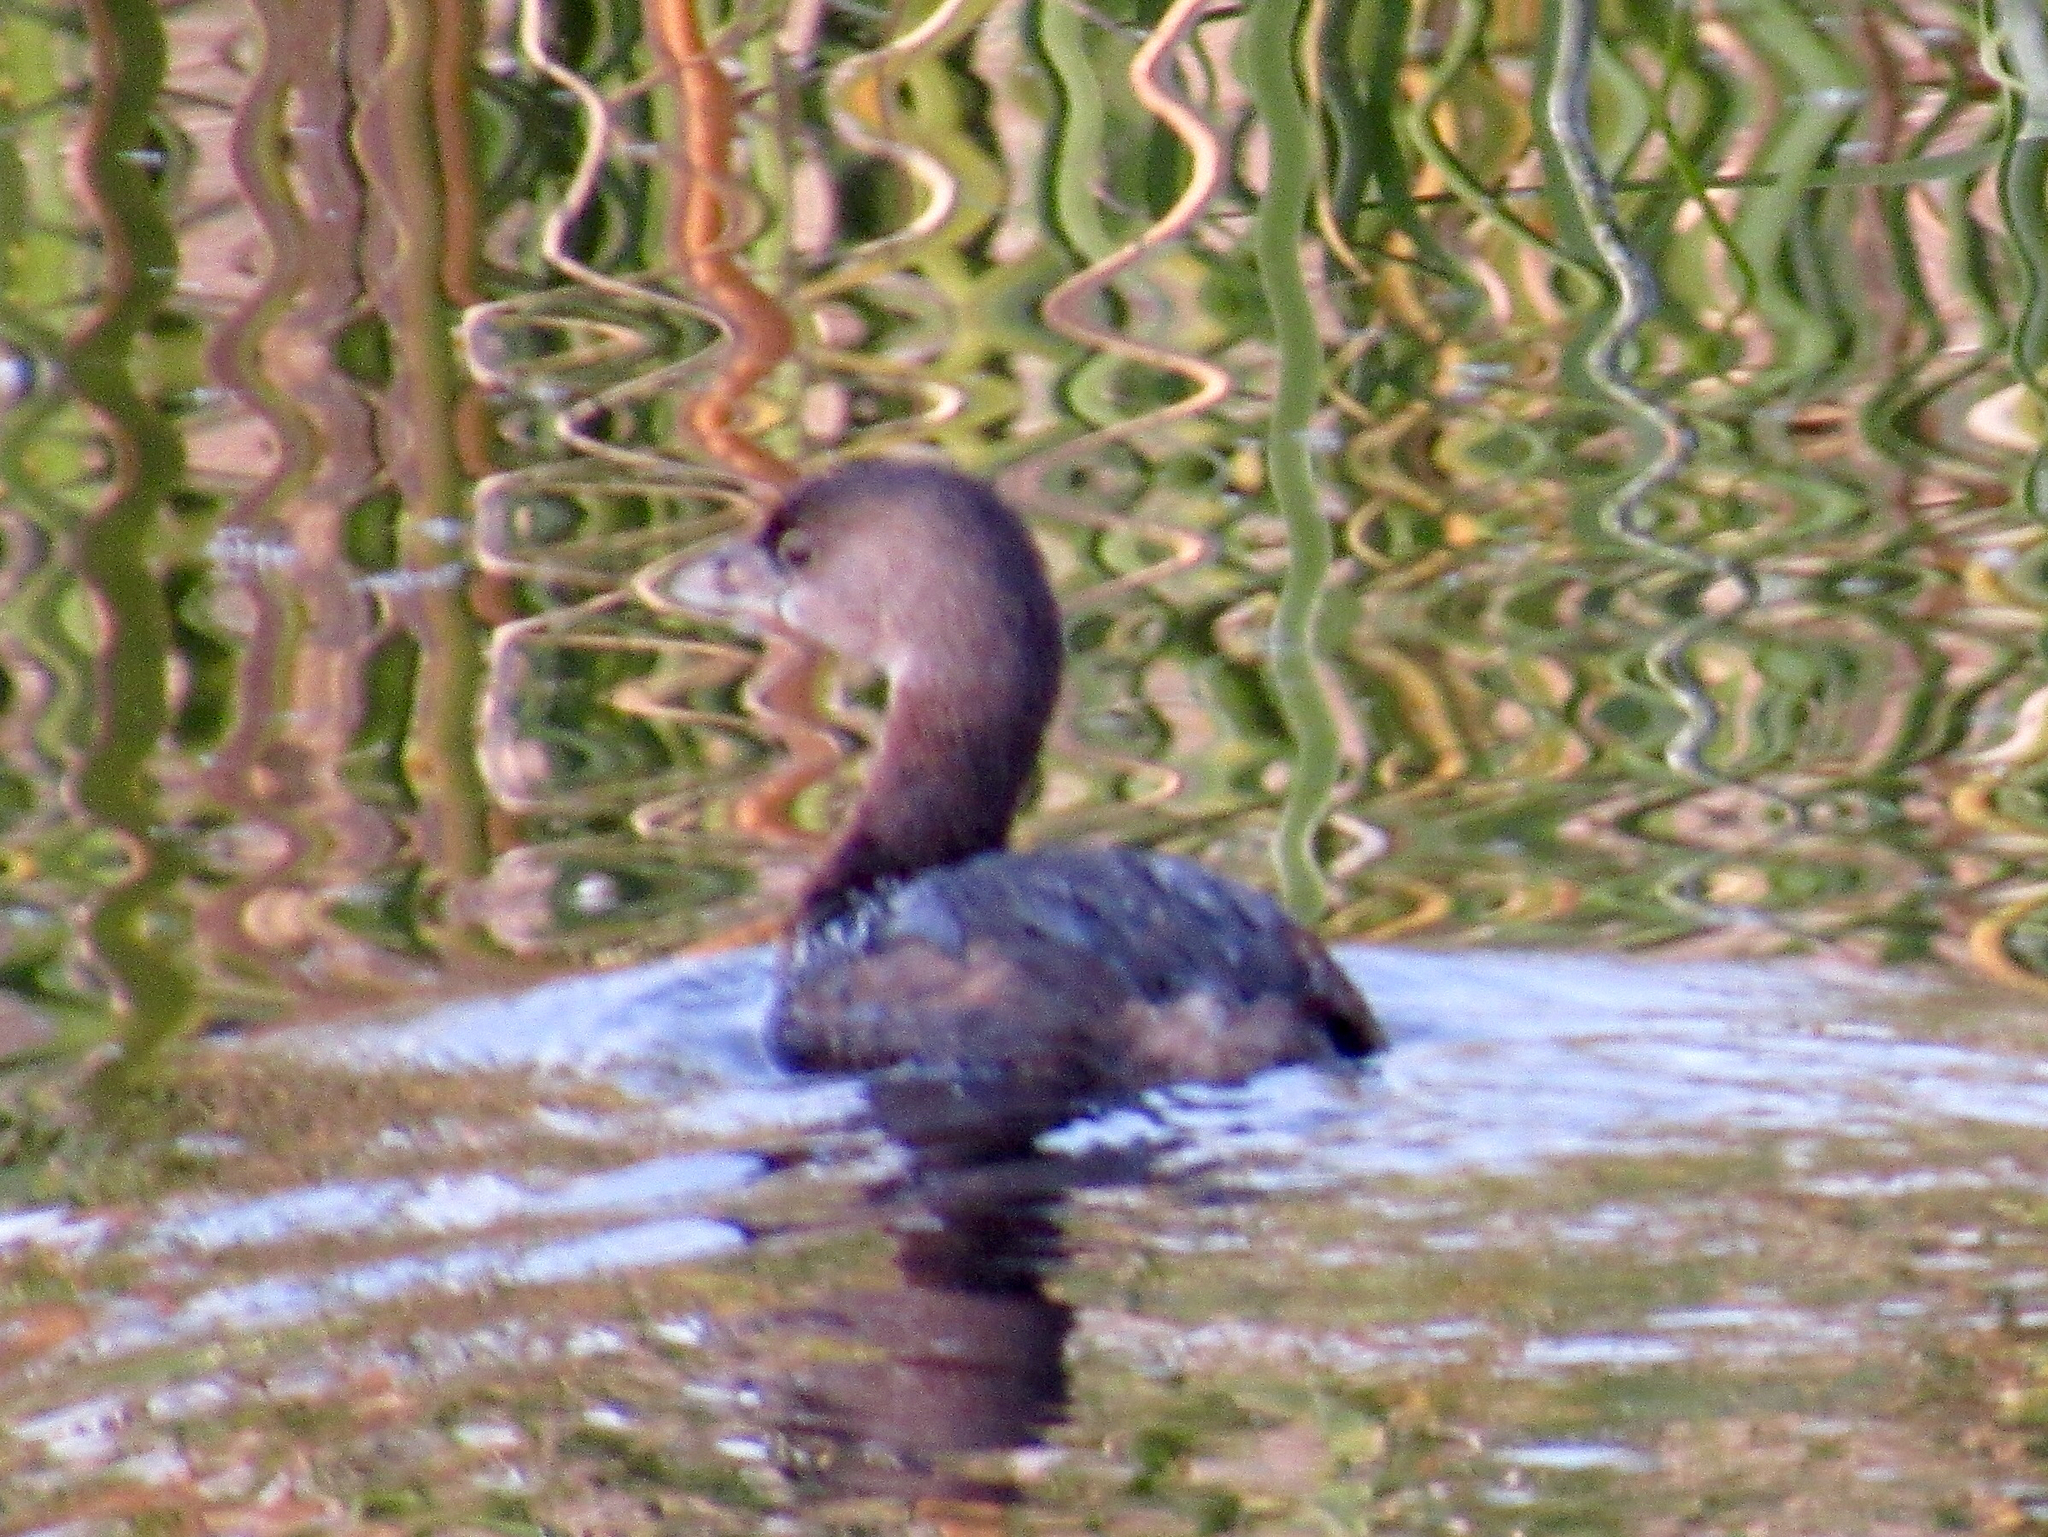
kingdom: Animalia
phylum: Chordata
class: Aves
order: Podicipediformes
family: Podicipedidae
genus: Podilymbus
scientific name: Podilymbus podiceps
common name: Pied-billed grebe
